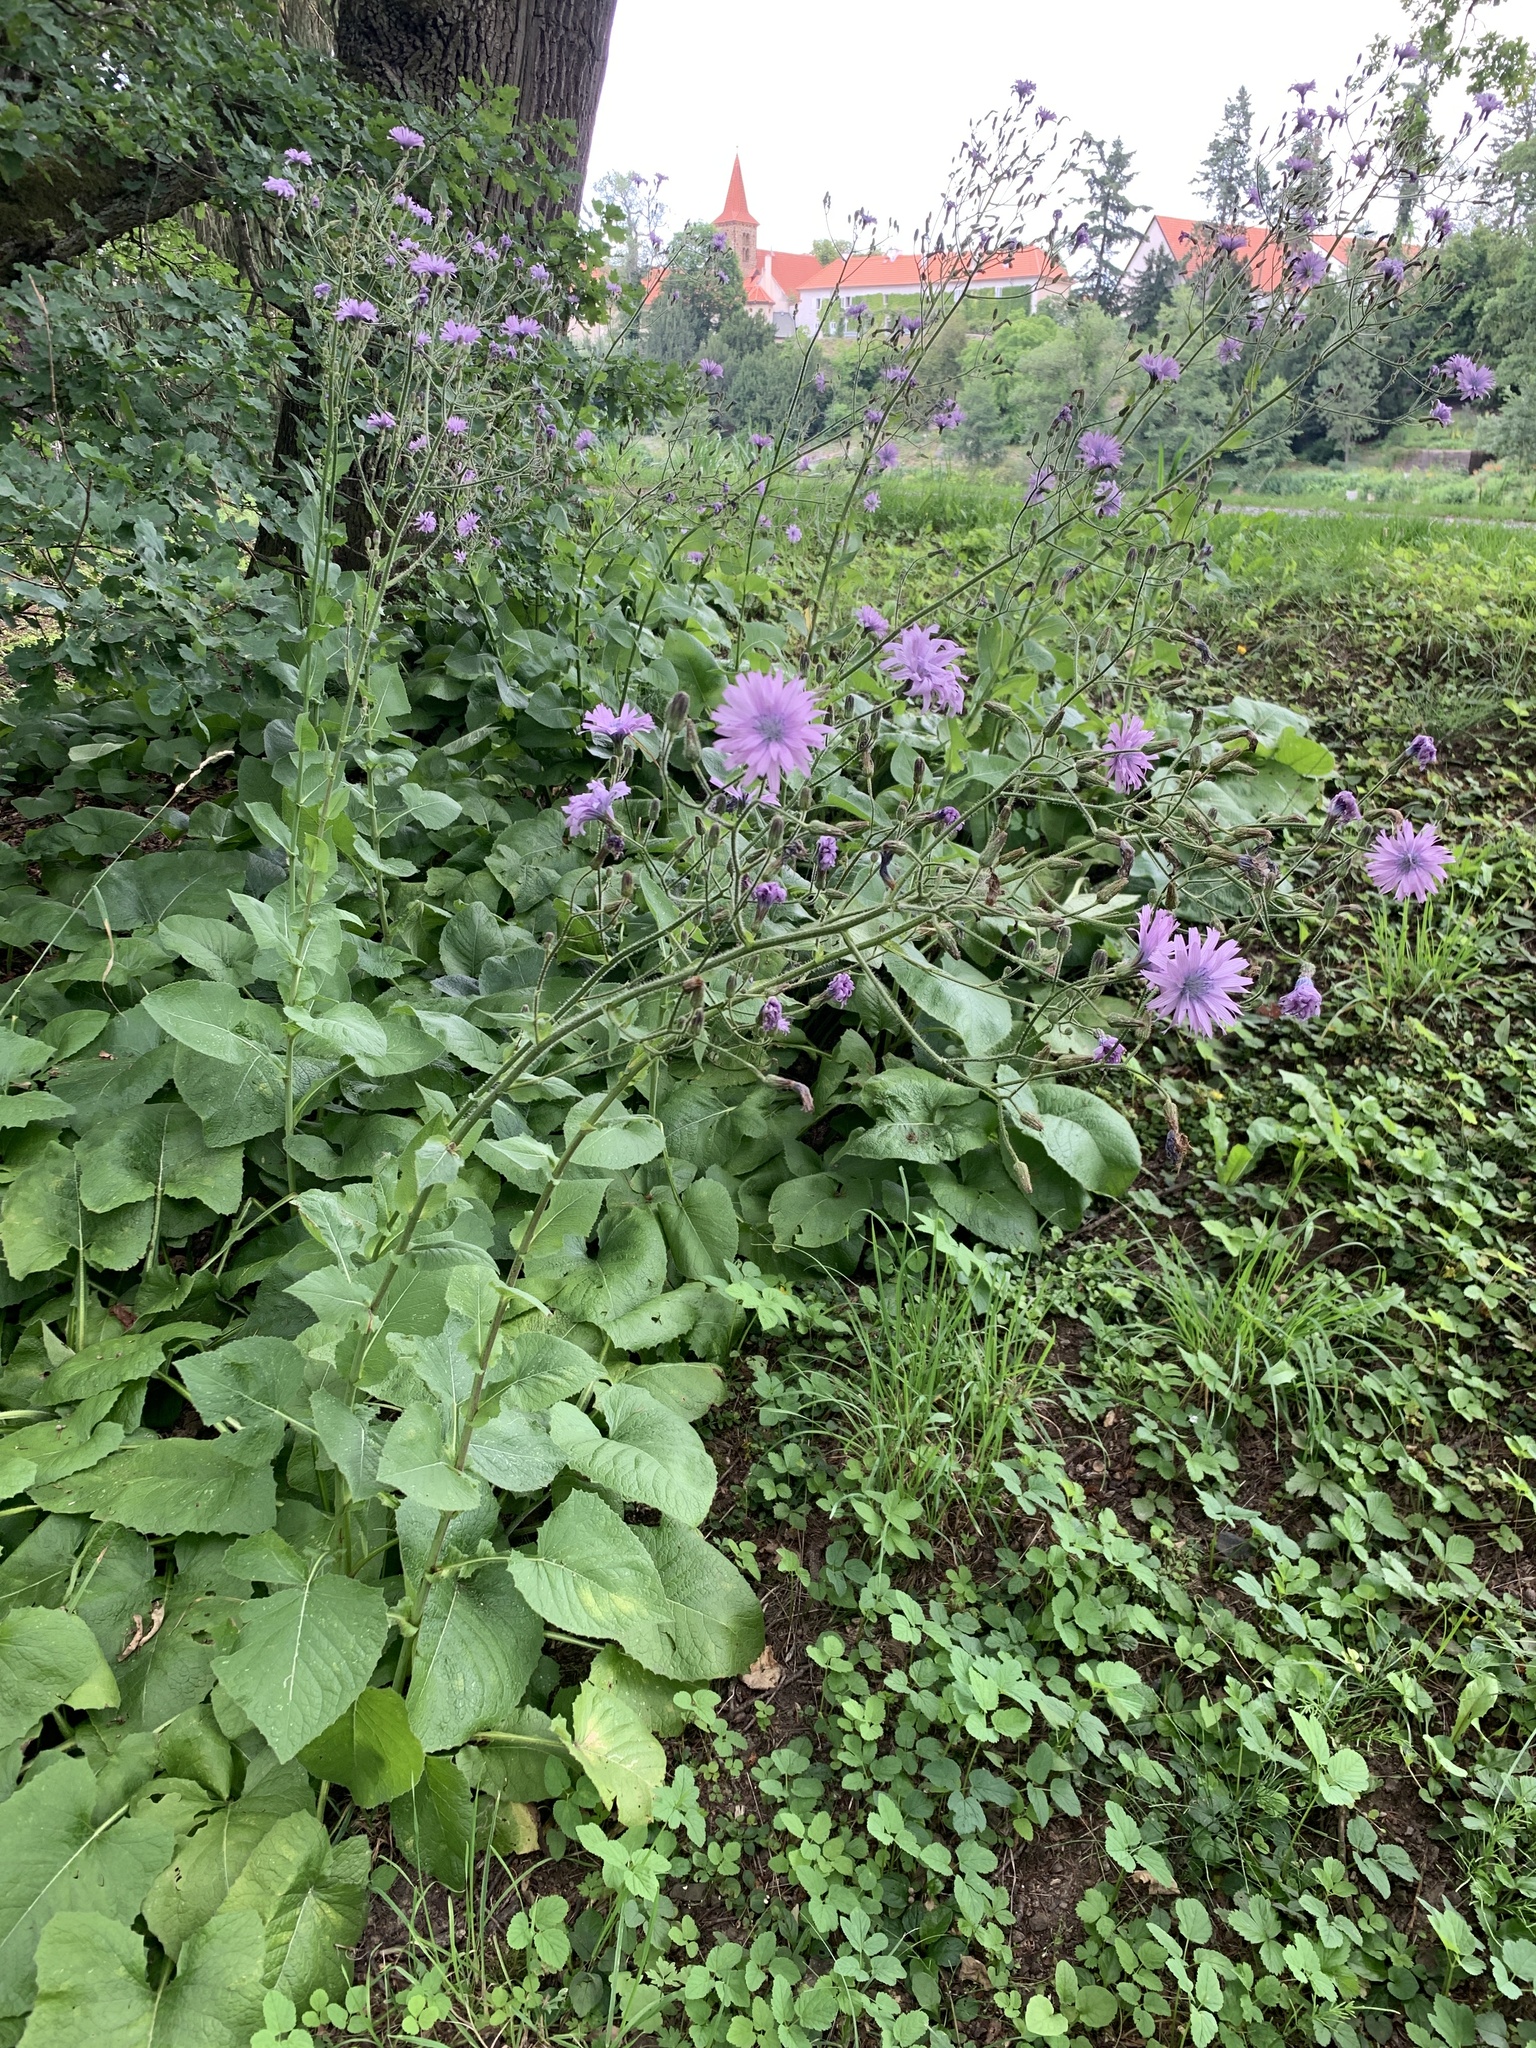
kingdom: Plantae
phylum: Tracheophyta
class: Magnoliopsida
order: Asterales
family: Asteraceae
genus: Lactuca
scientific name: Lactuca macrophylla
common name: Common blue-sow-thistle
